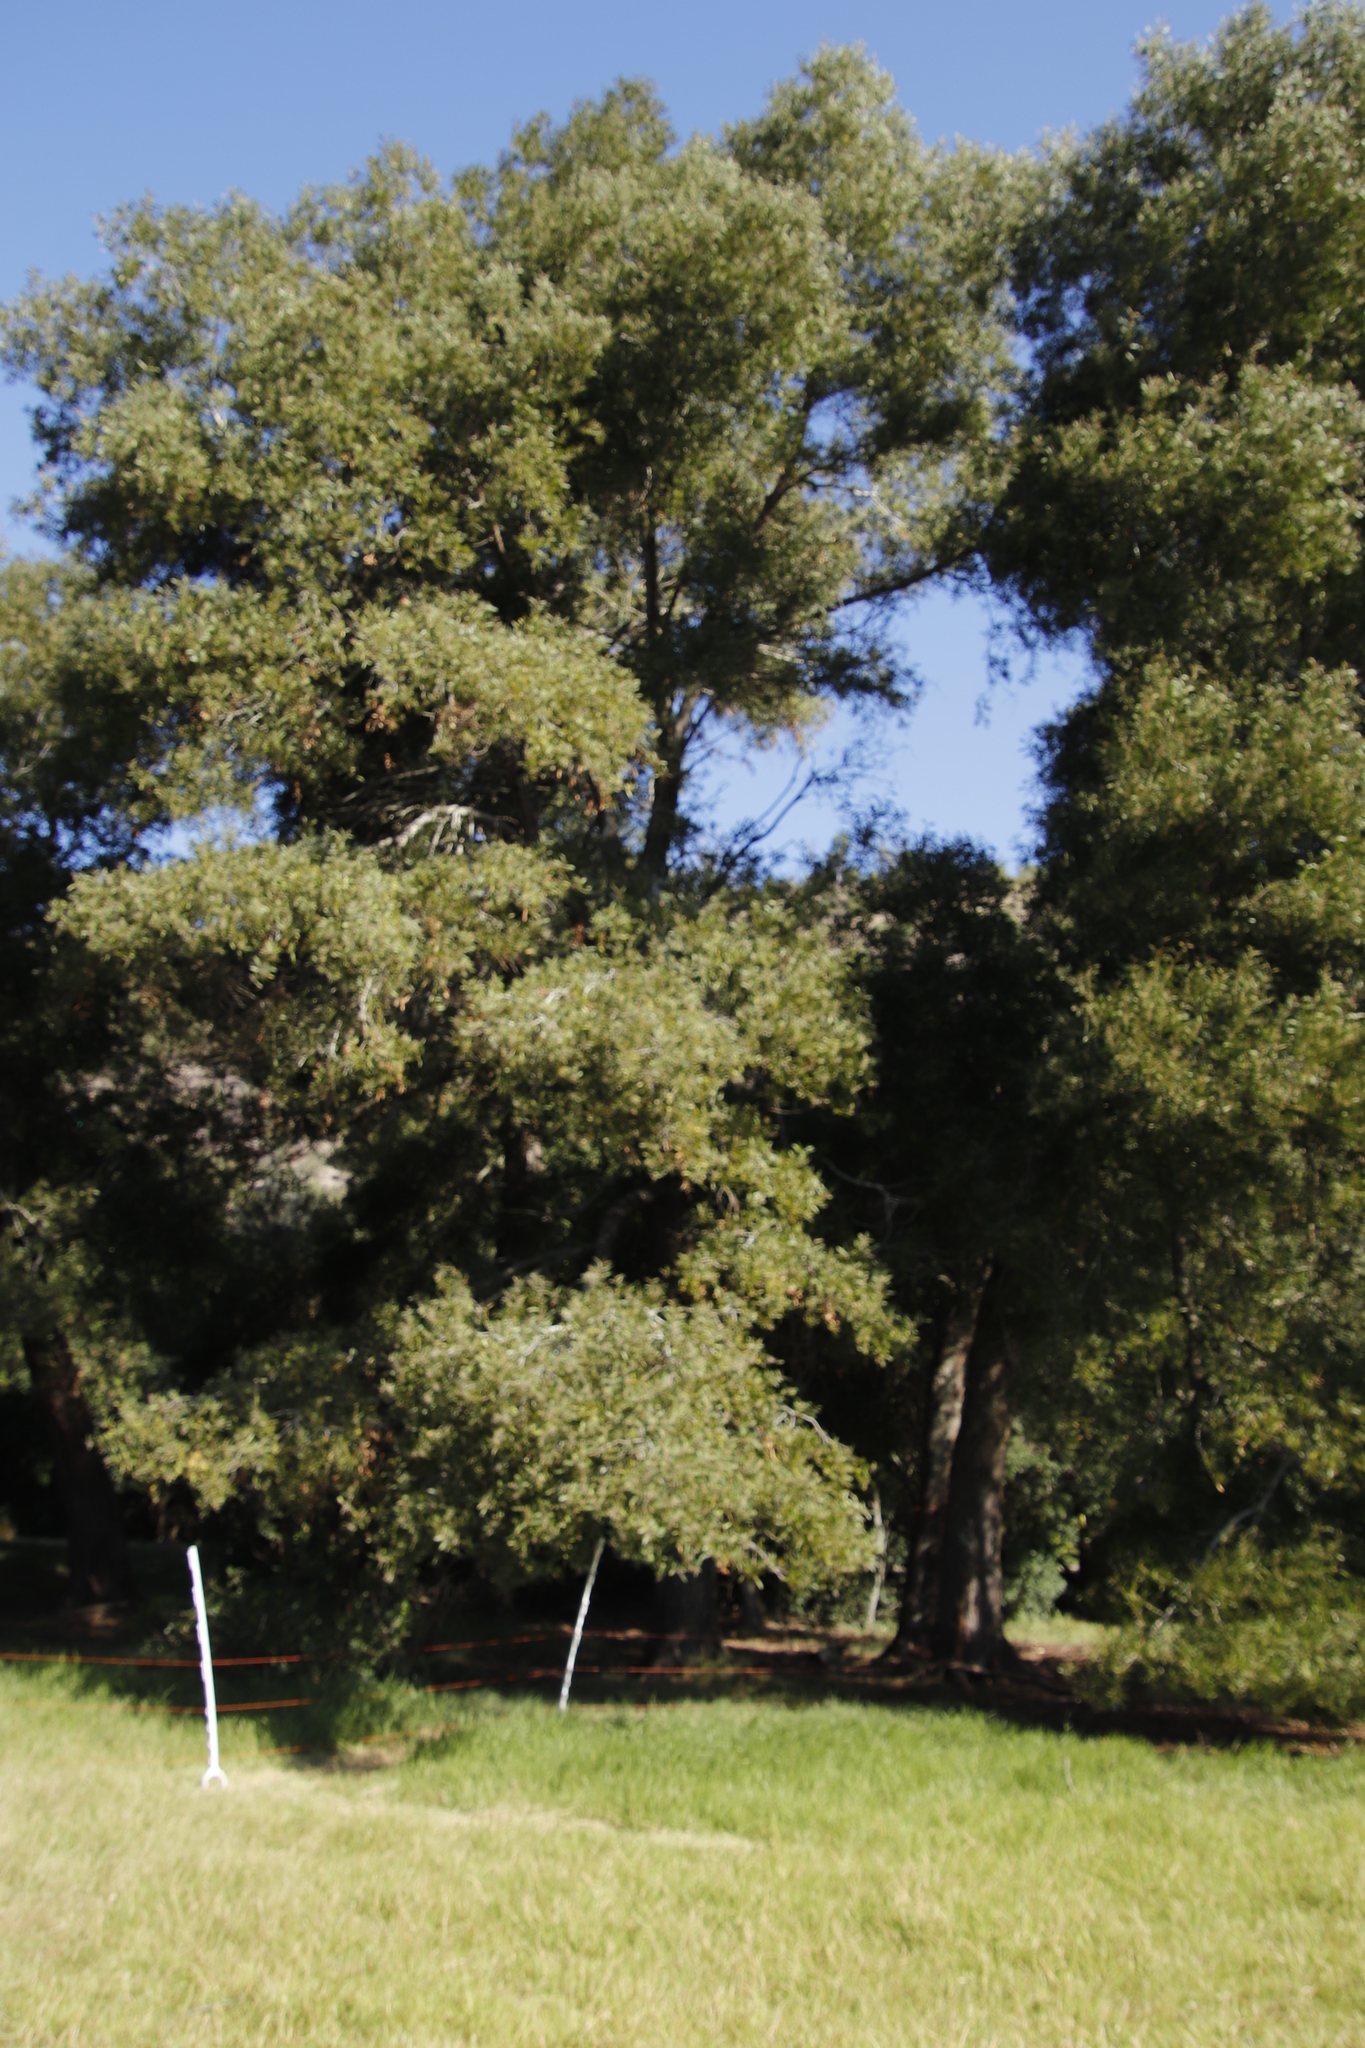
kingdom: Plantae
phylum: Tracheophyta
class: Magnoliopsida
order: Fabales
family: Fabaceae
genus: Acacia
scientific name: Acacia melanoxylon
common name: Blackwood
